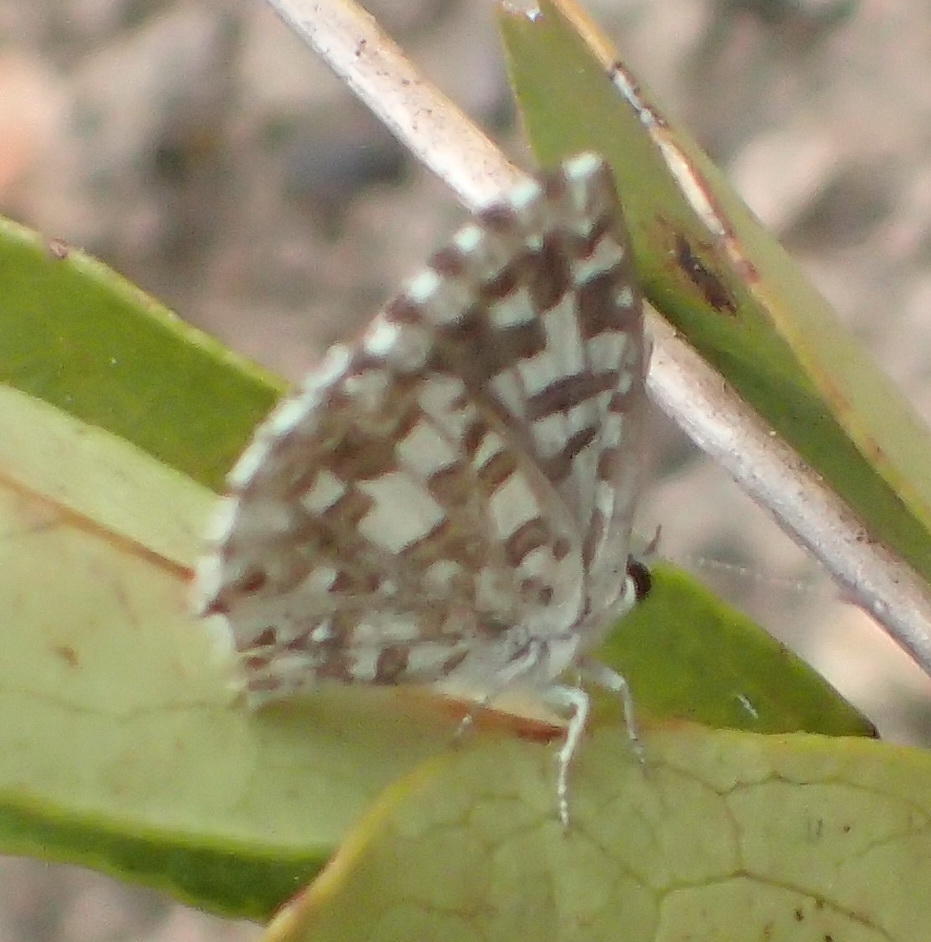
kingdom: Animalia
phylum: Arthropoda
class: Insecta
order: Lepidoptera
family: Lycaenidae
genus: Tarucus
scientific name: Tarucus thespis
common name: Vivid dotted blue
